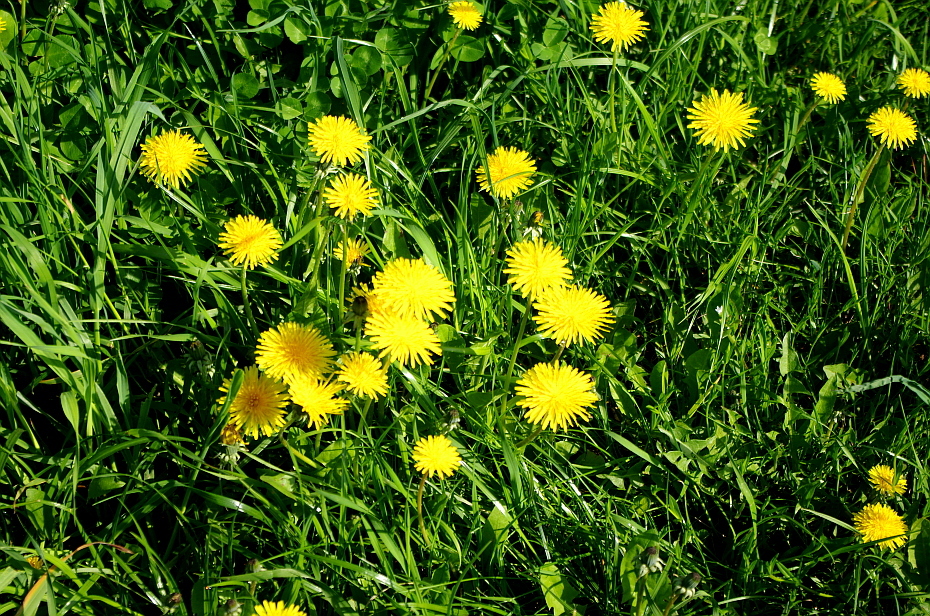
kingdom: Plantae
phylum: Tracheophyta
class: Magnoliopsida
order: Asterales
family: Asteraceae
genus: Taraxacum
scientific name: Taraxacum officinale
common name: Common dandelion
